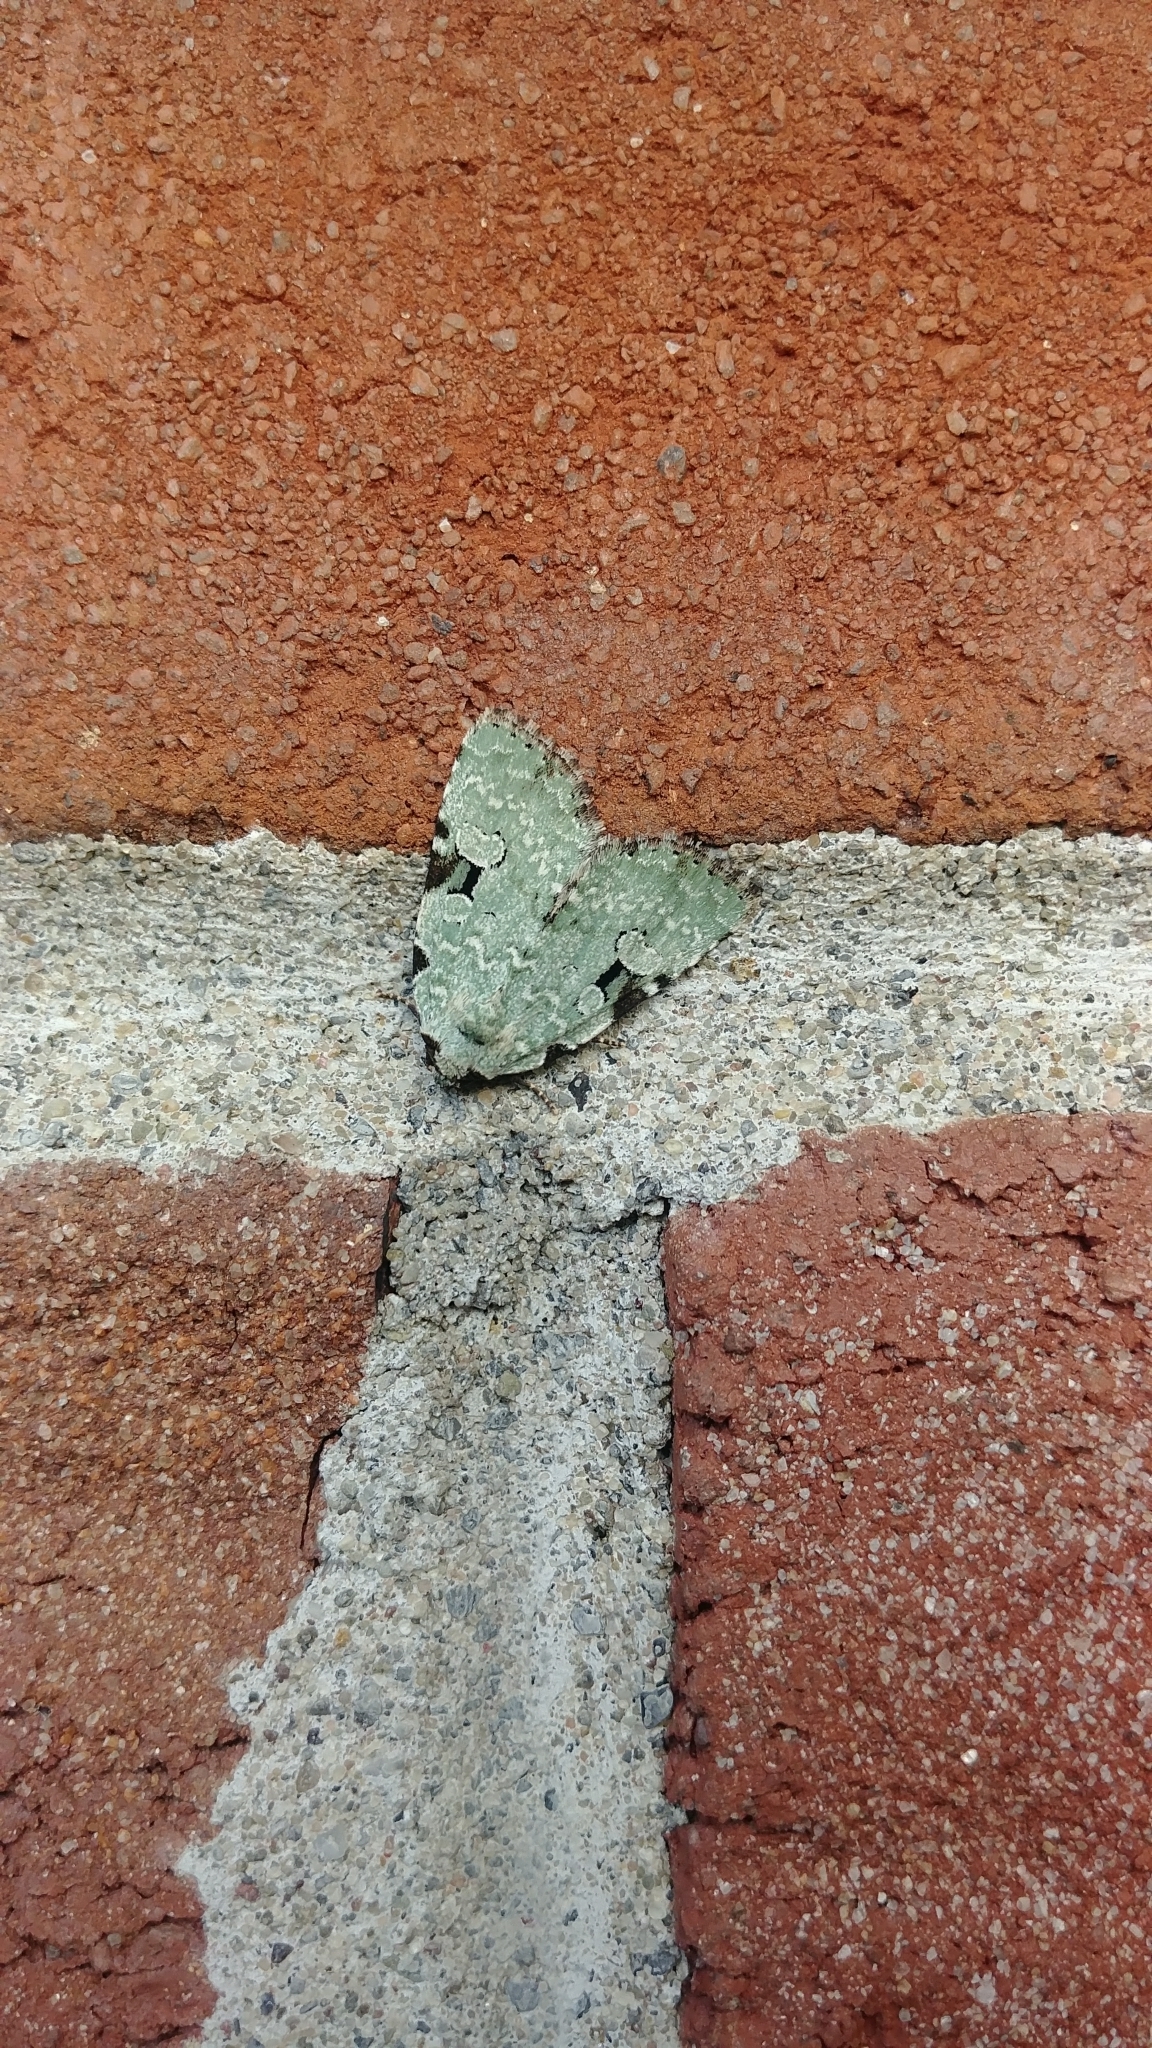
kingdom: Animalia
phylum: Arthropoda
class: Insecta
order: Lepidoptera
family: Noctuidae
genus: Leuconycta
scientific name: Leuconycta diphteroides
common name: Green leuconycta moth
